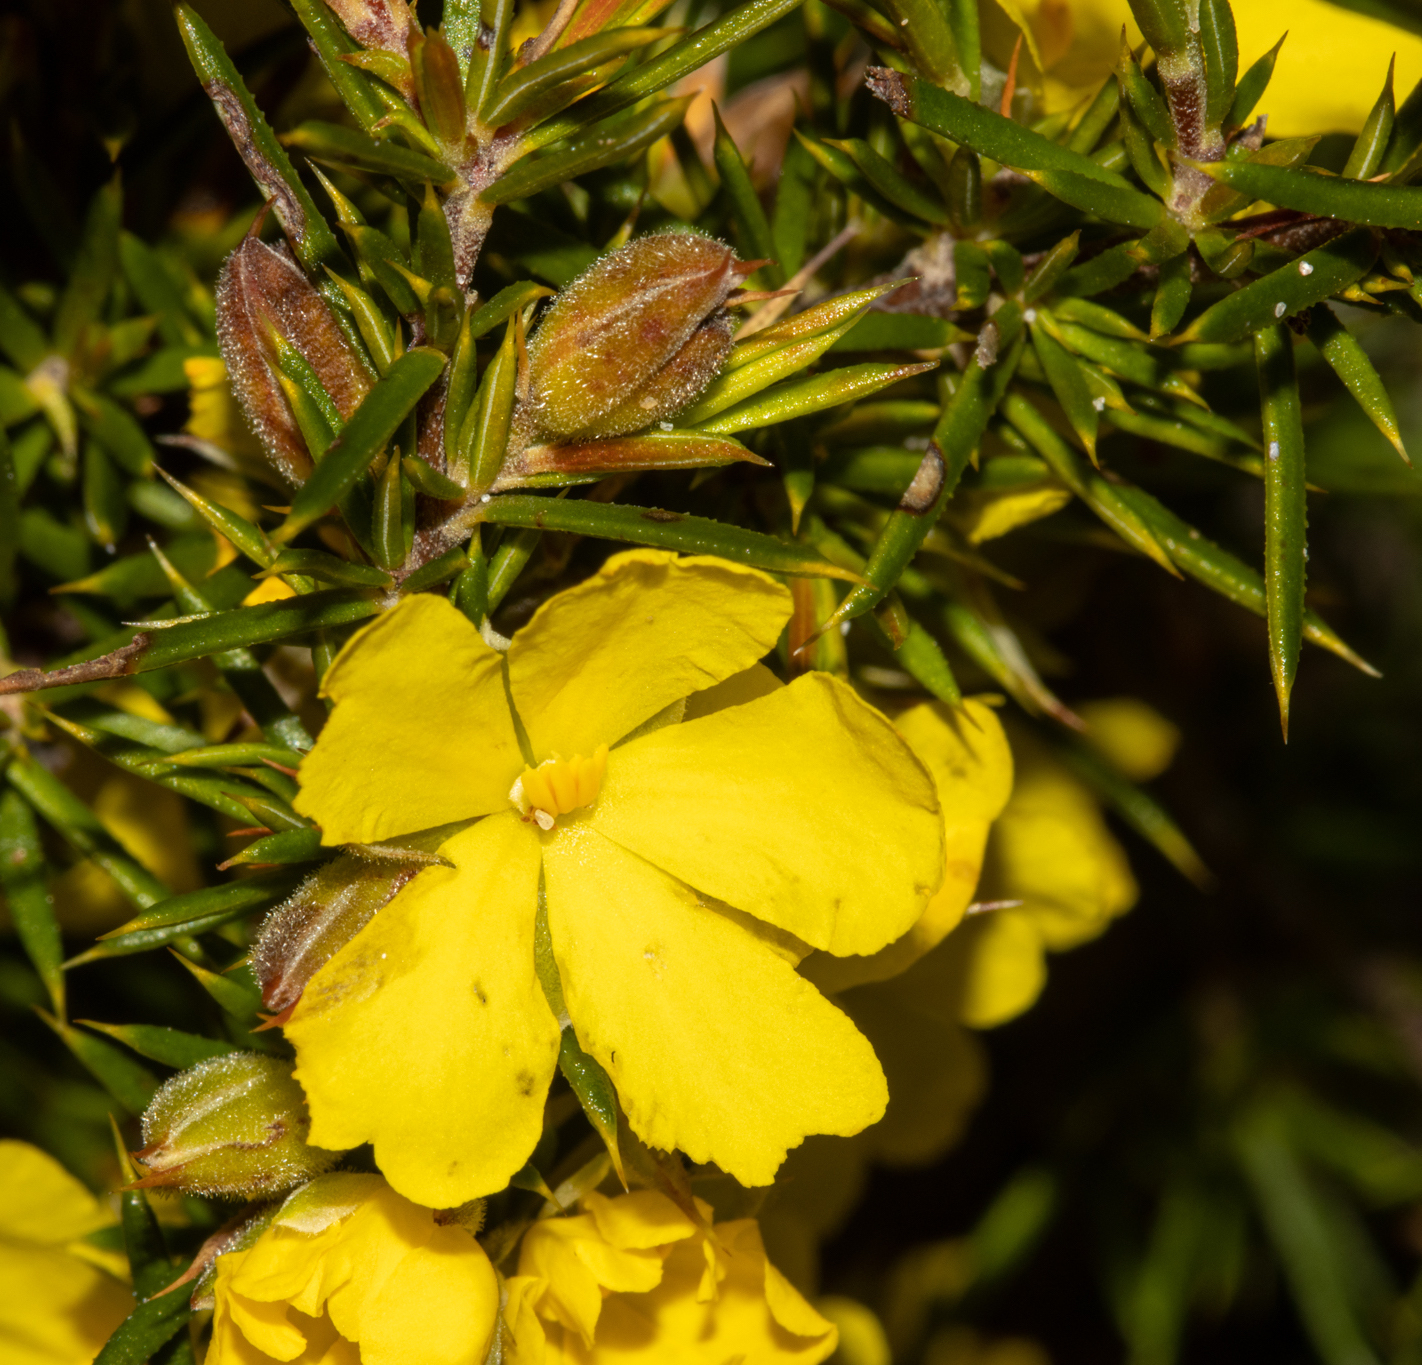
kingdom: Plantae
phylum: Tracheophyta
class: Magnoliopsida
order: Dilleniales
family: Dilleniaceae
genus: Hibbertia
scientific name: Hibbertia hamulosa
